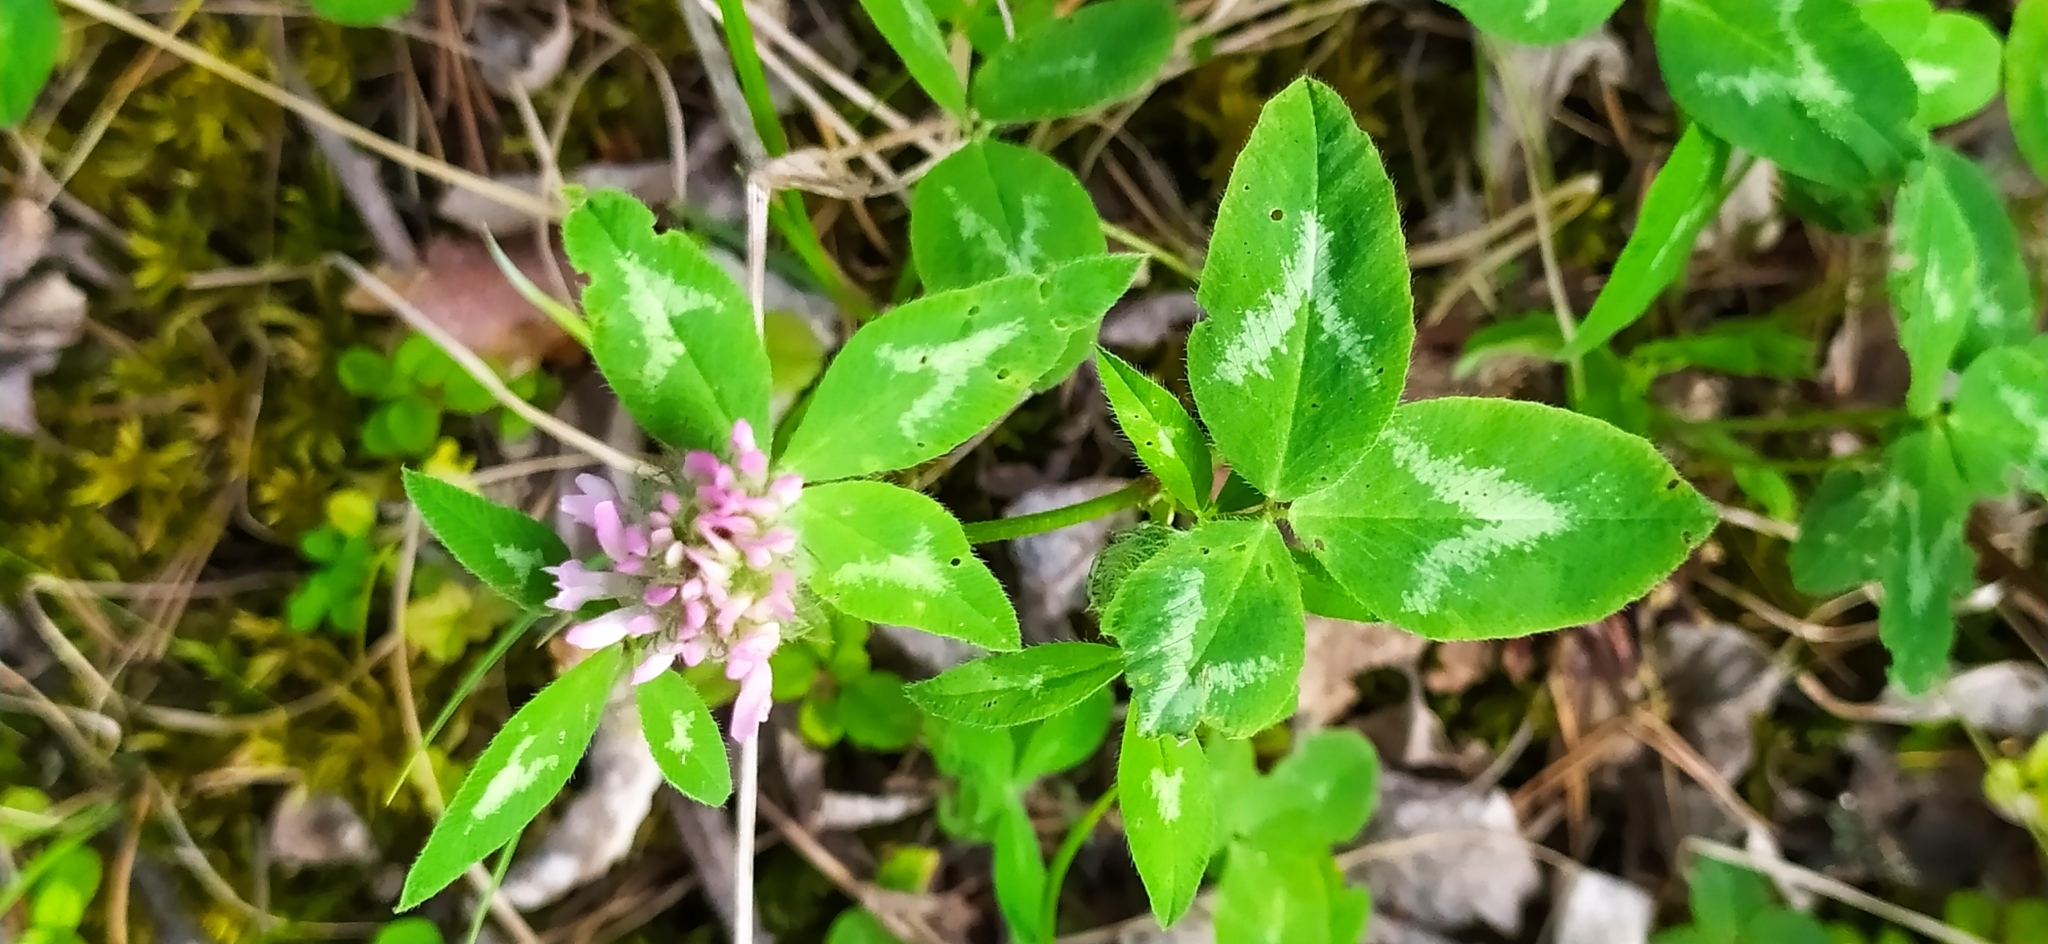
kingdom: Plantae
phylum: Tracheophyta
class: Magnoliopsida
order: Fabales
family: Fabaceae
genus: Trifolium
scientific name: Trifolium pratense
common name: Red clover
